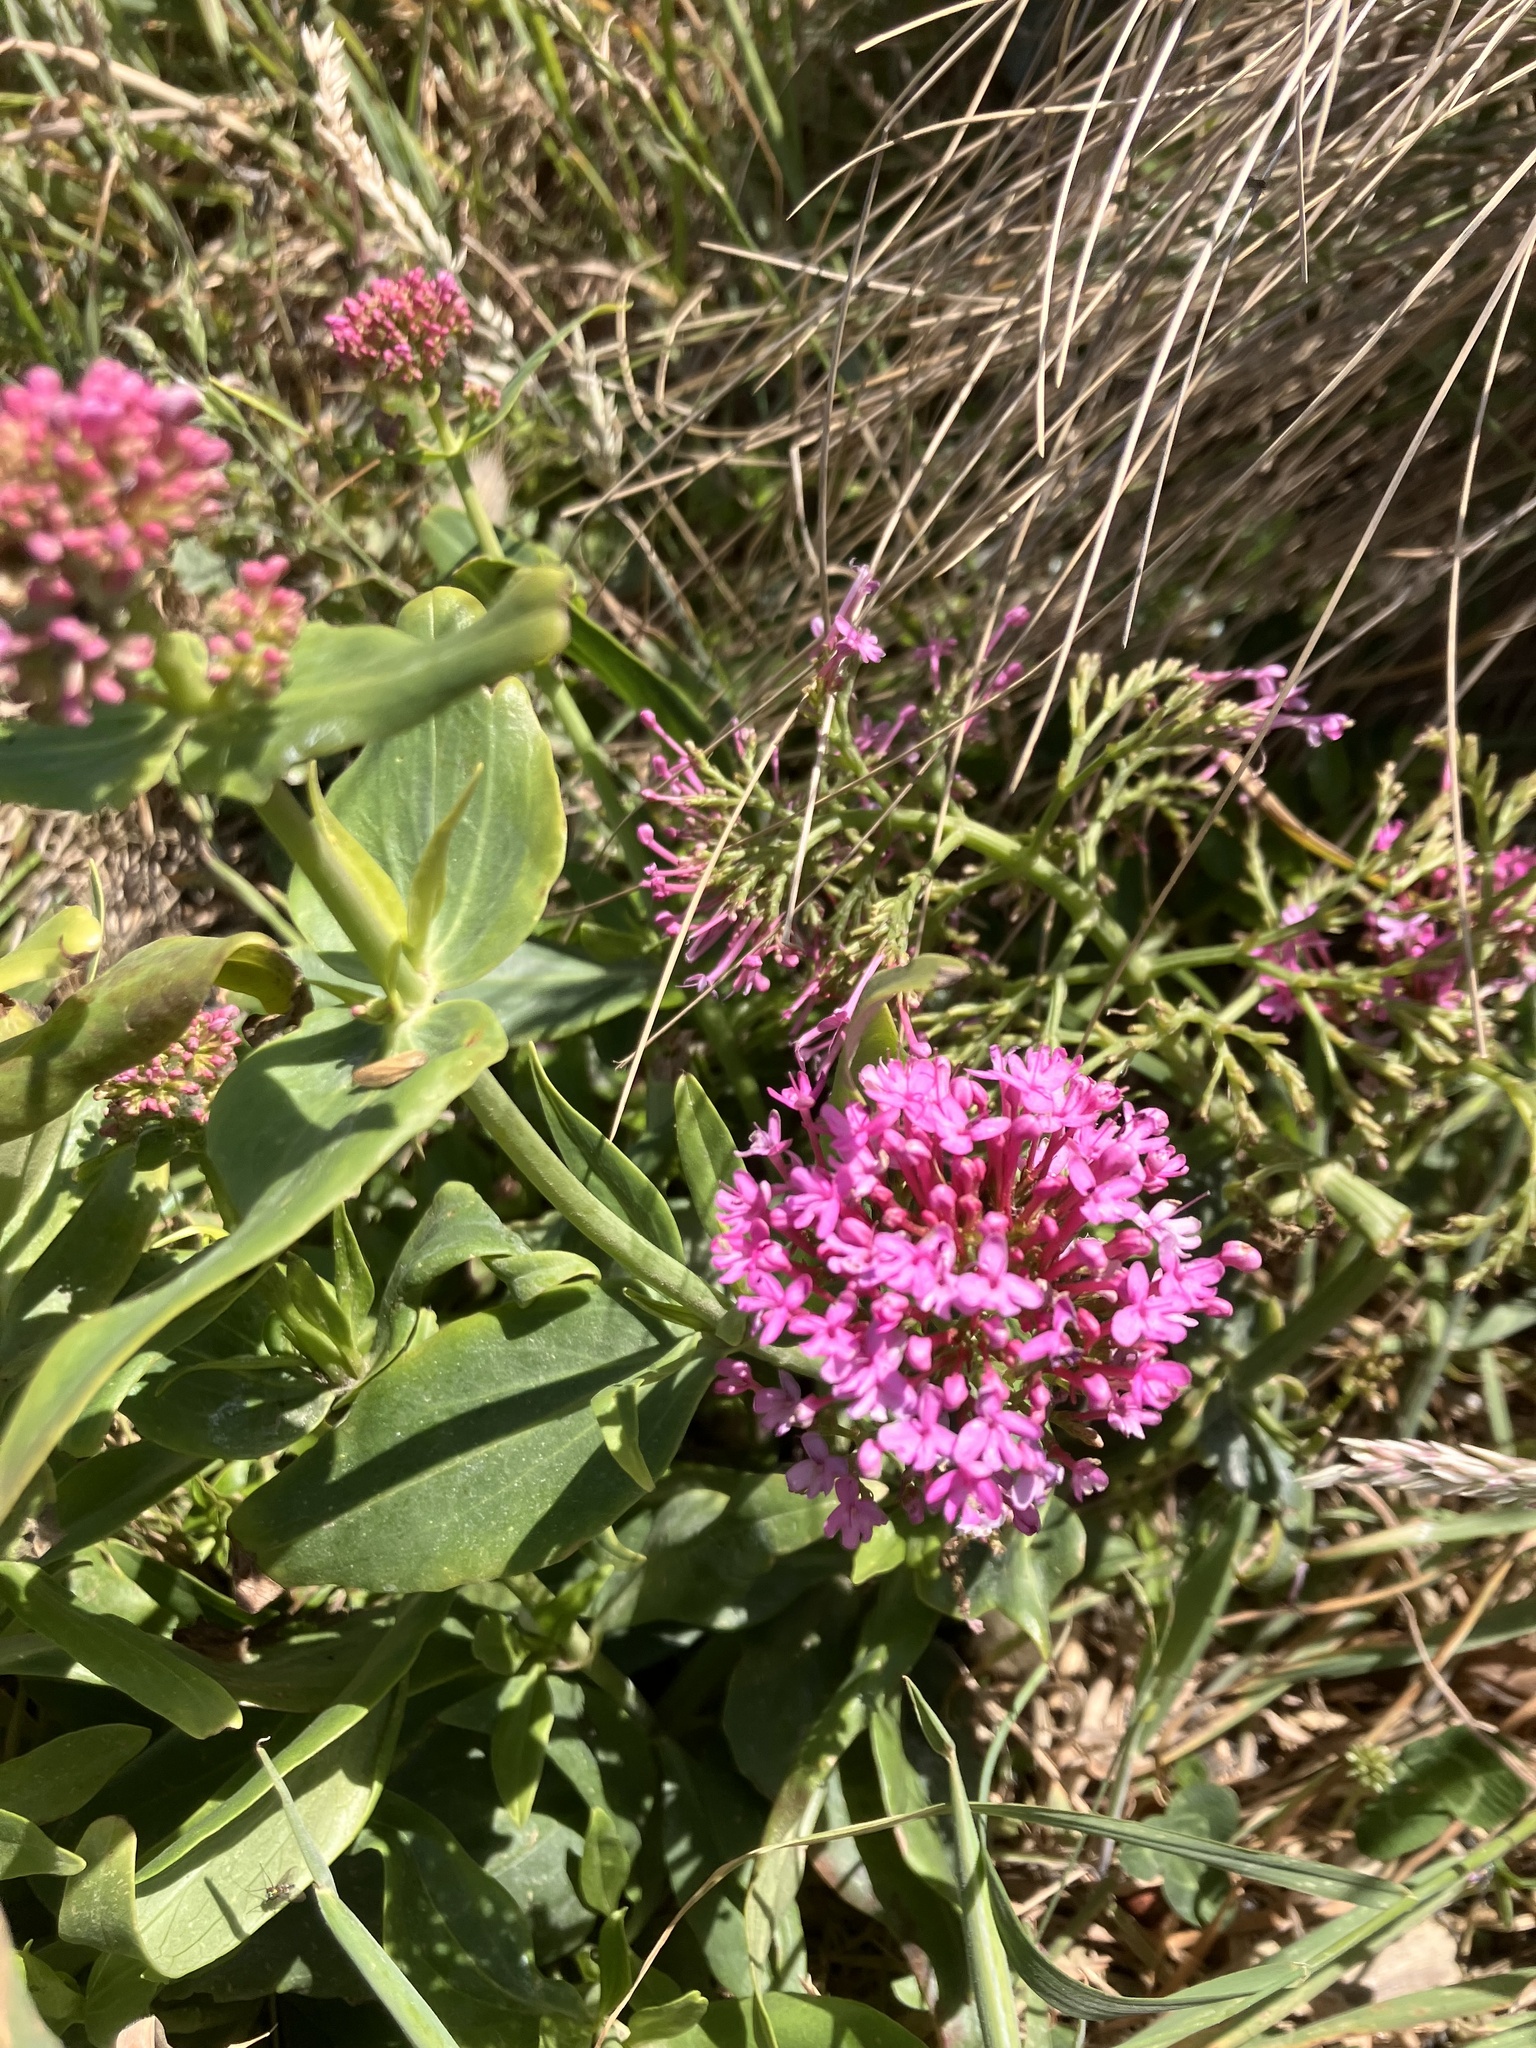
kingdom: Plantae
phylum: Tracheophyta
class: Magnoliopsida
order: Dipsacales
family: Caprifoliaceae
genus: Centranthus
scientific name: Centranthus ruber
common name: Red valerian
